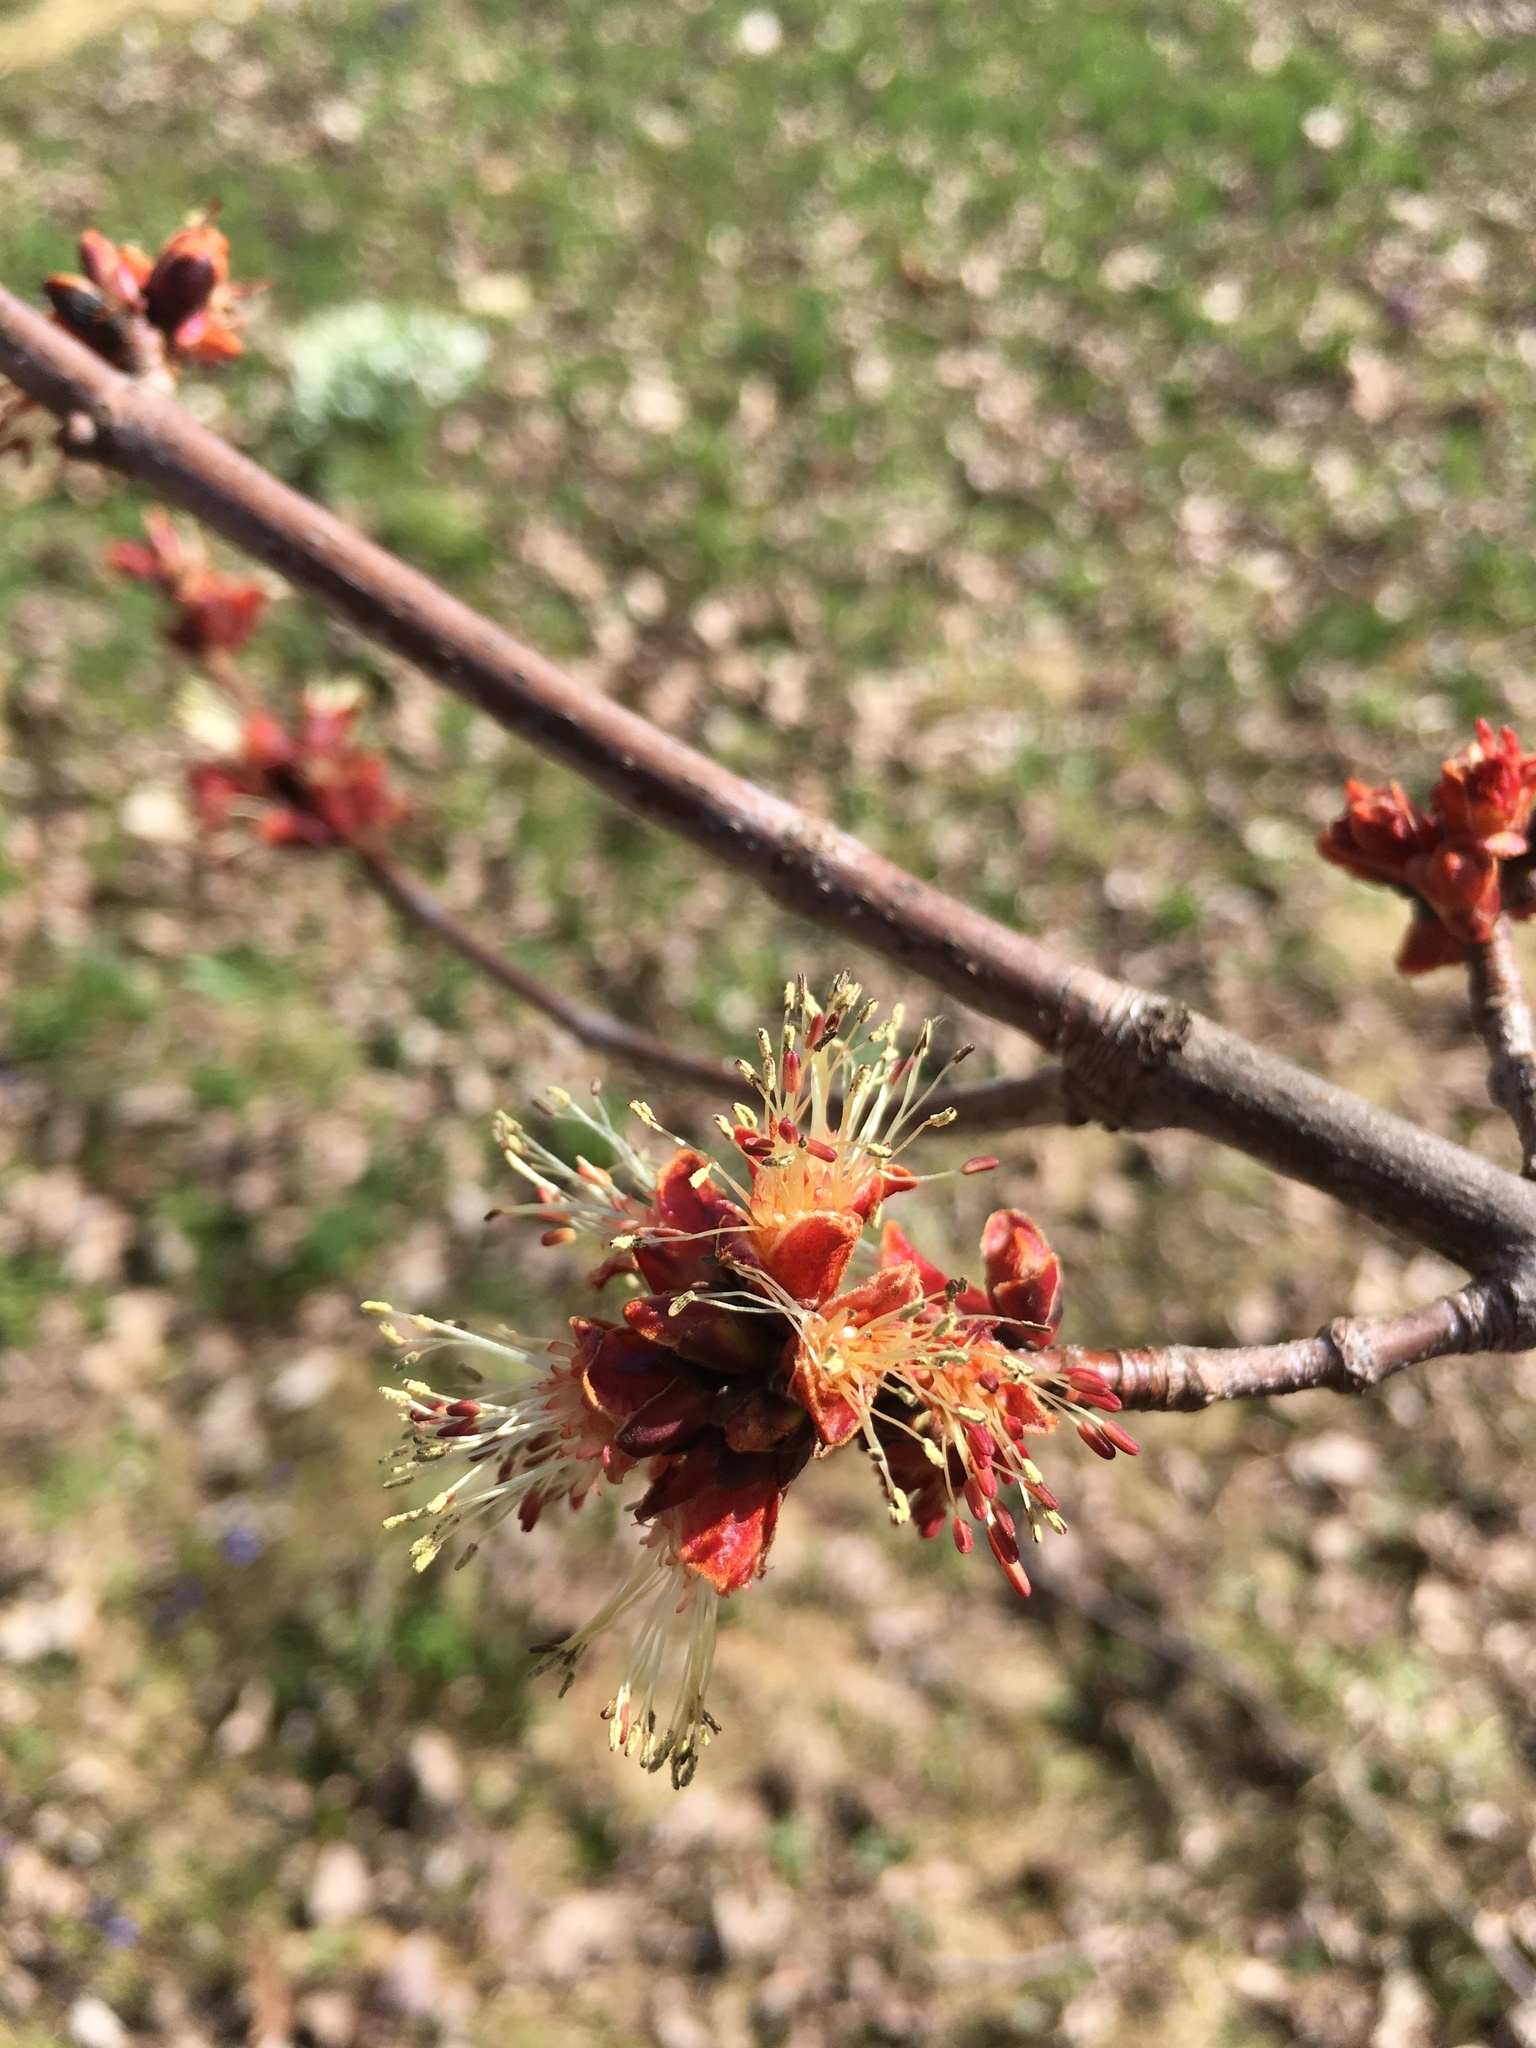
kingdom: Plantae
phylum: Tracheophyta
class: Magnoliopsida
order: Sapindales
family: Sapindaceae
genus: Acer
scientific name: Acer rubrum
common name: Red maple
